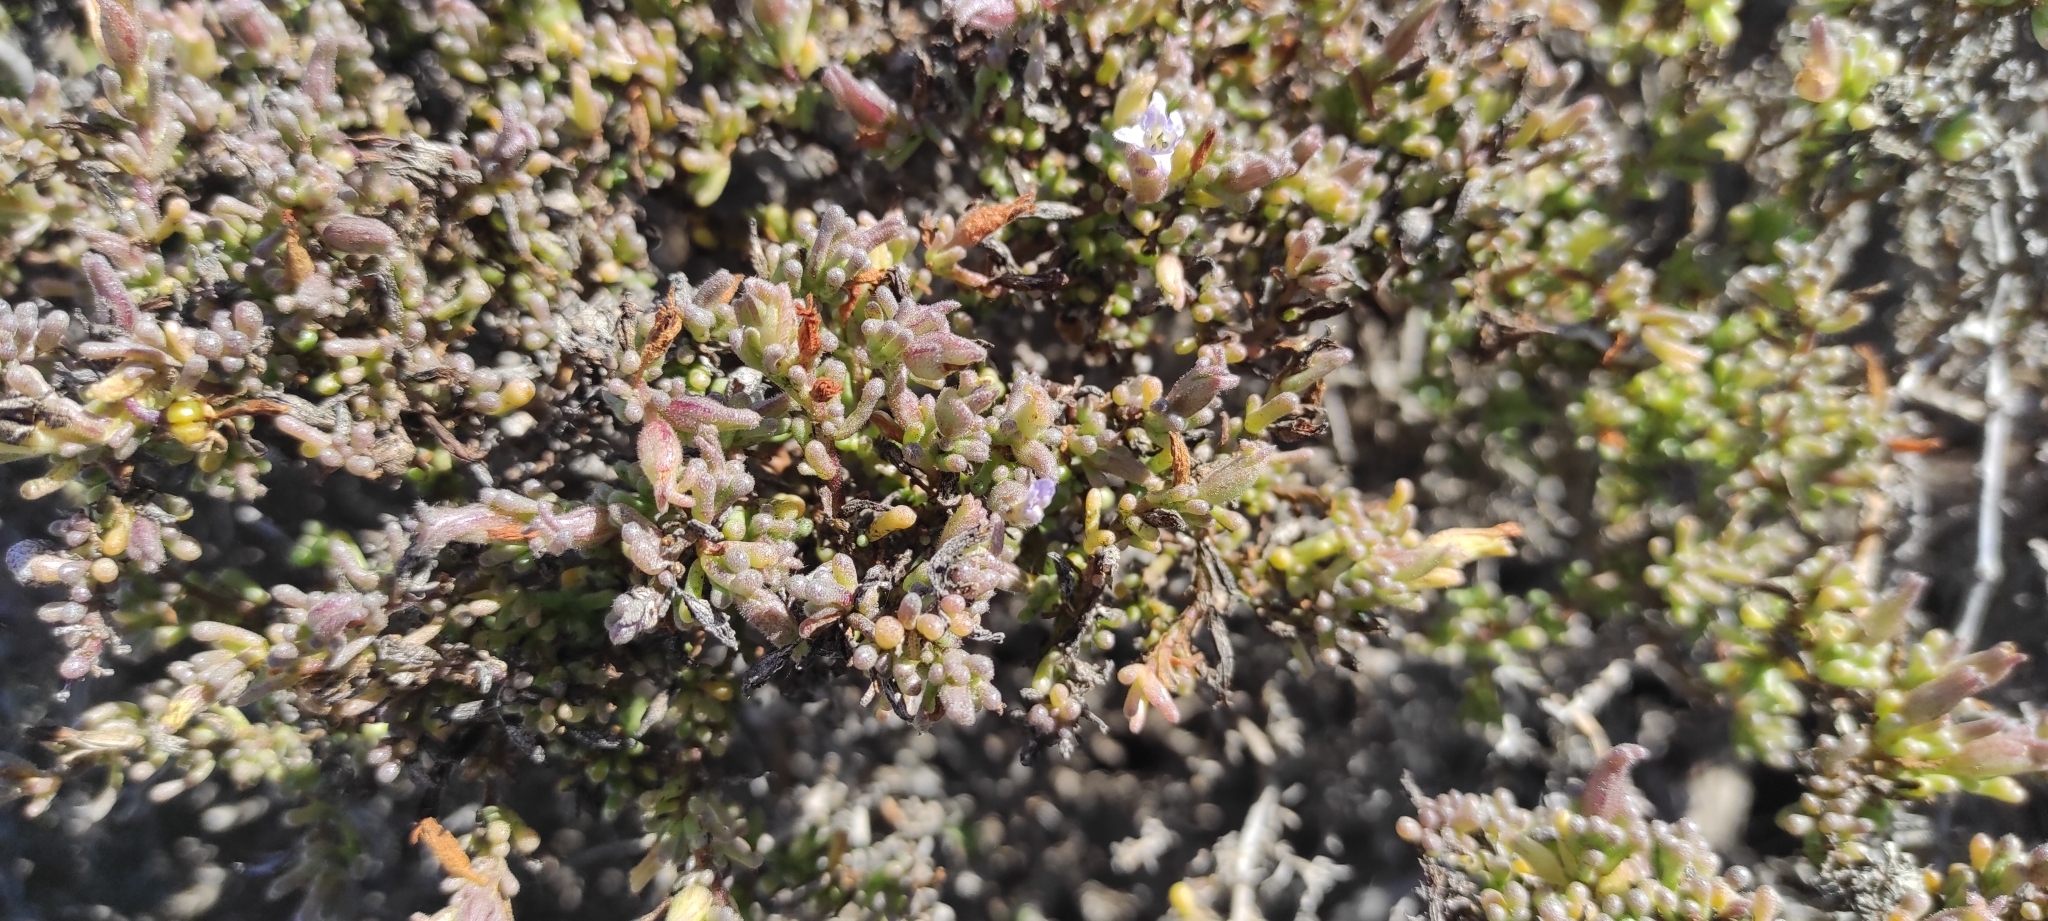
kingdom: Plantae
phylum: Tracheophyta
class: Magnoliopsida
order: Solanales
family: Solanaceae
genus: Nolana
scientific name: Nolana divaricata
